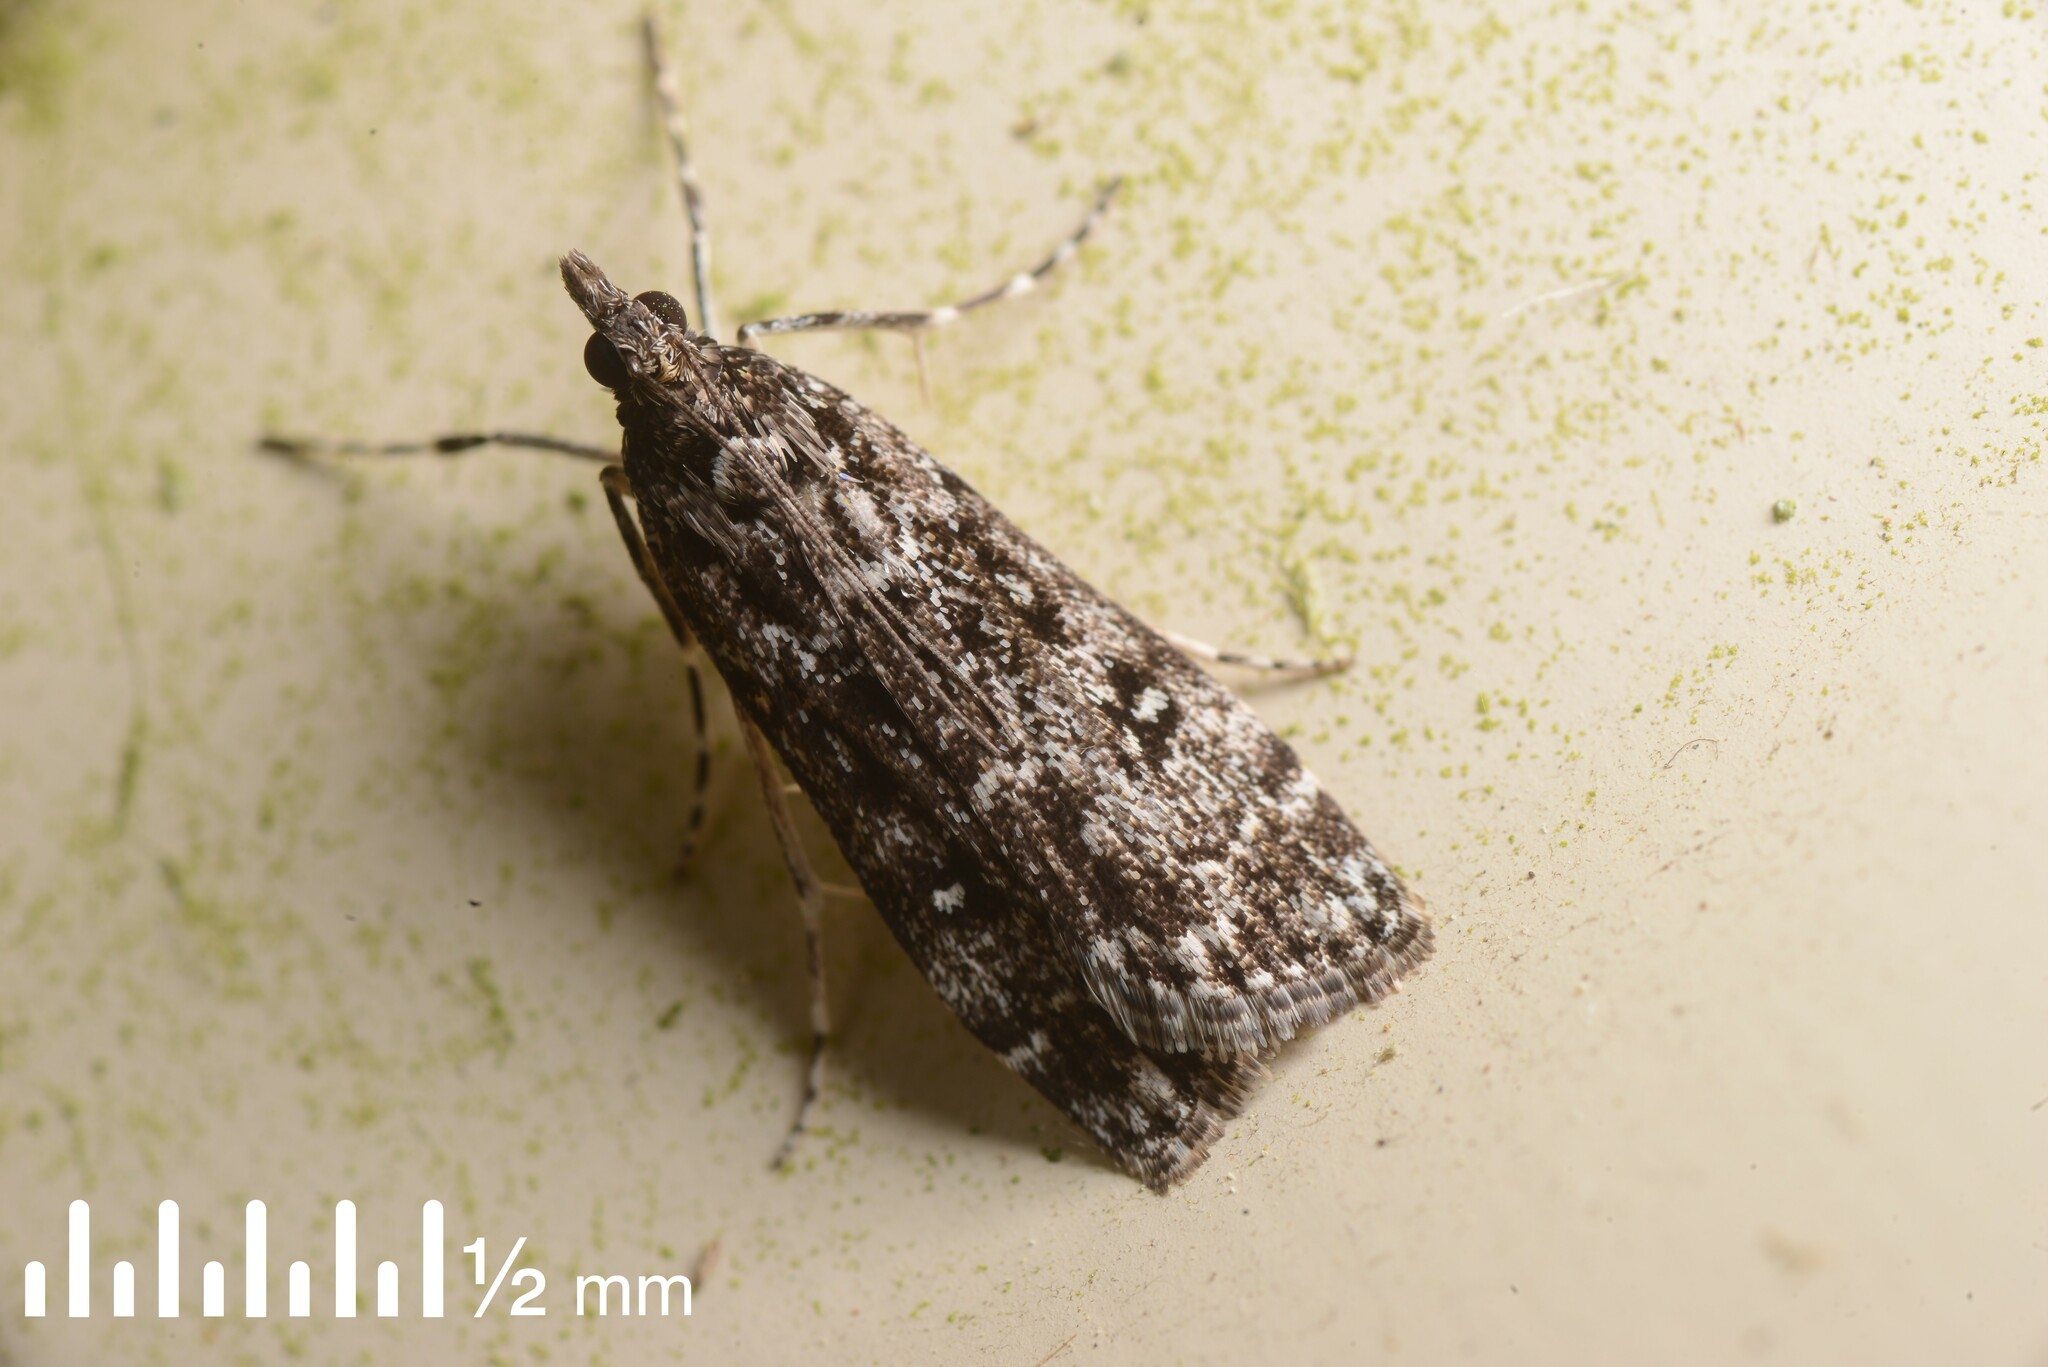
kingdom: Animalia
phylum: Arthropoda
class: Insecta
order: Lepidoptera
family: Crambidae
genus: Eudonia
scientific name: Eudonia philerga
